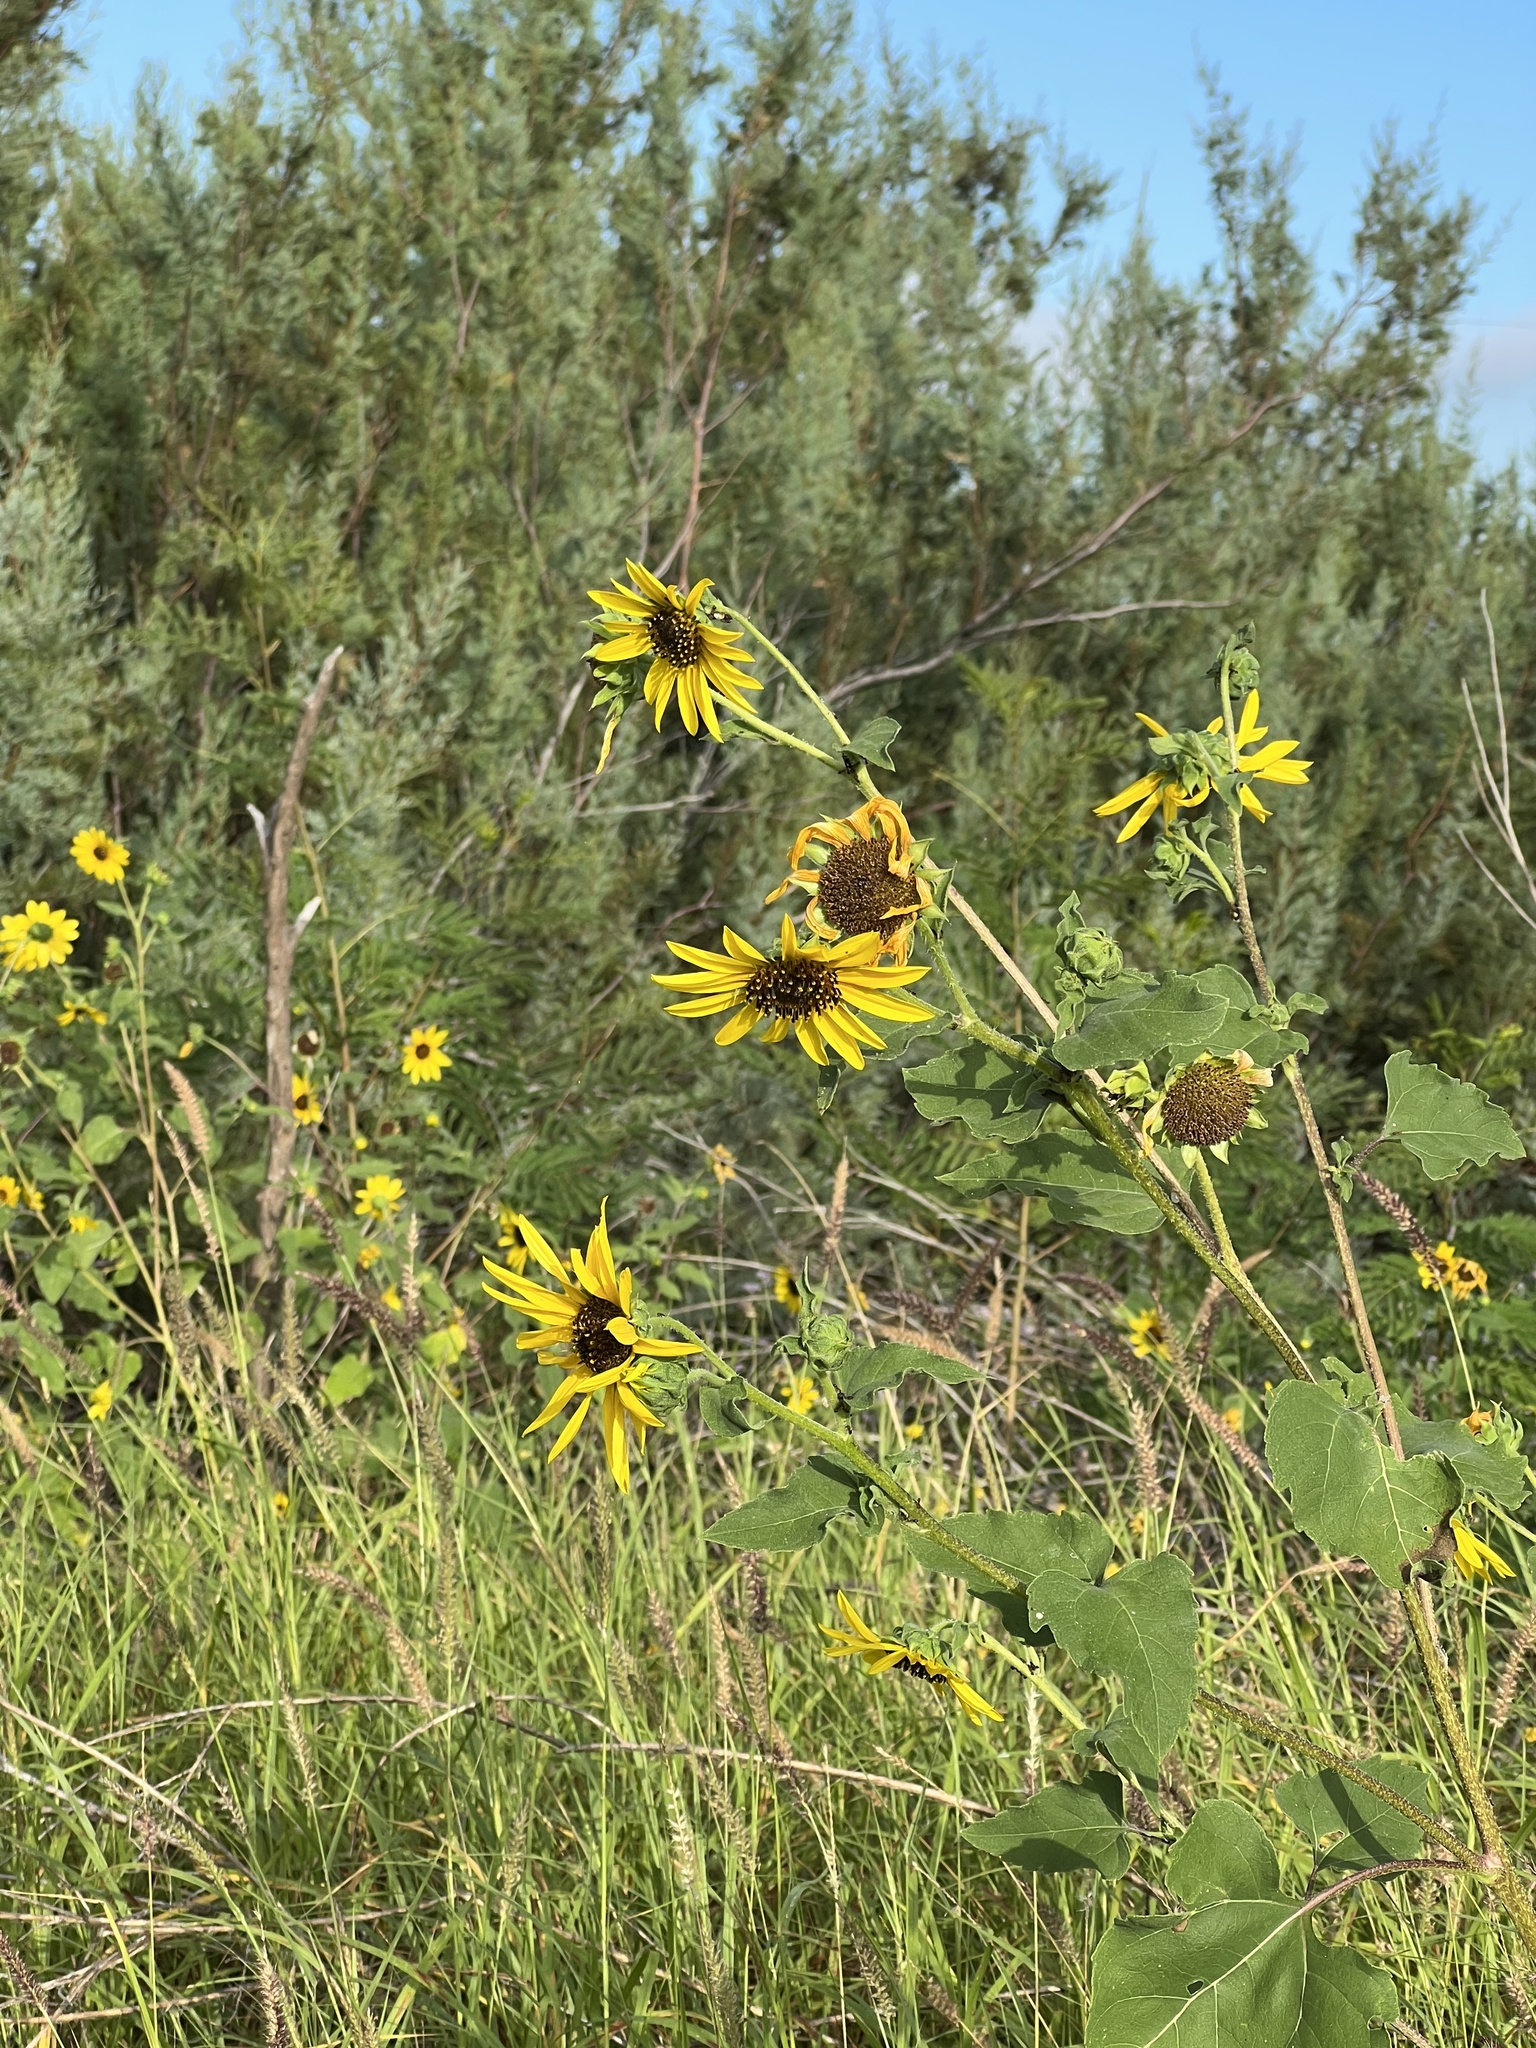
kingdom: Plantae
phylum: Tracheophyta
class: Magnoliopsida
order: Asterales
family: Asteraceae
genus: Helianthus
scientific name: Helianthus annuus
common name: Sunflower
